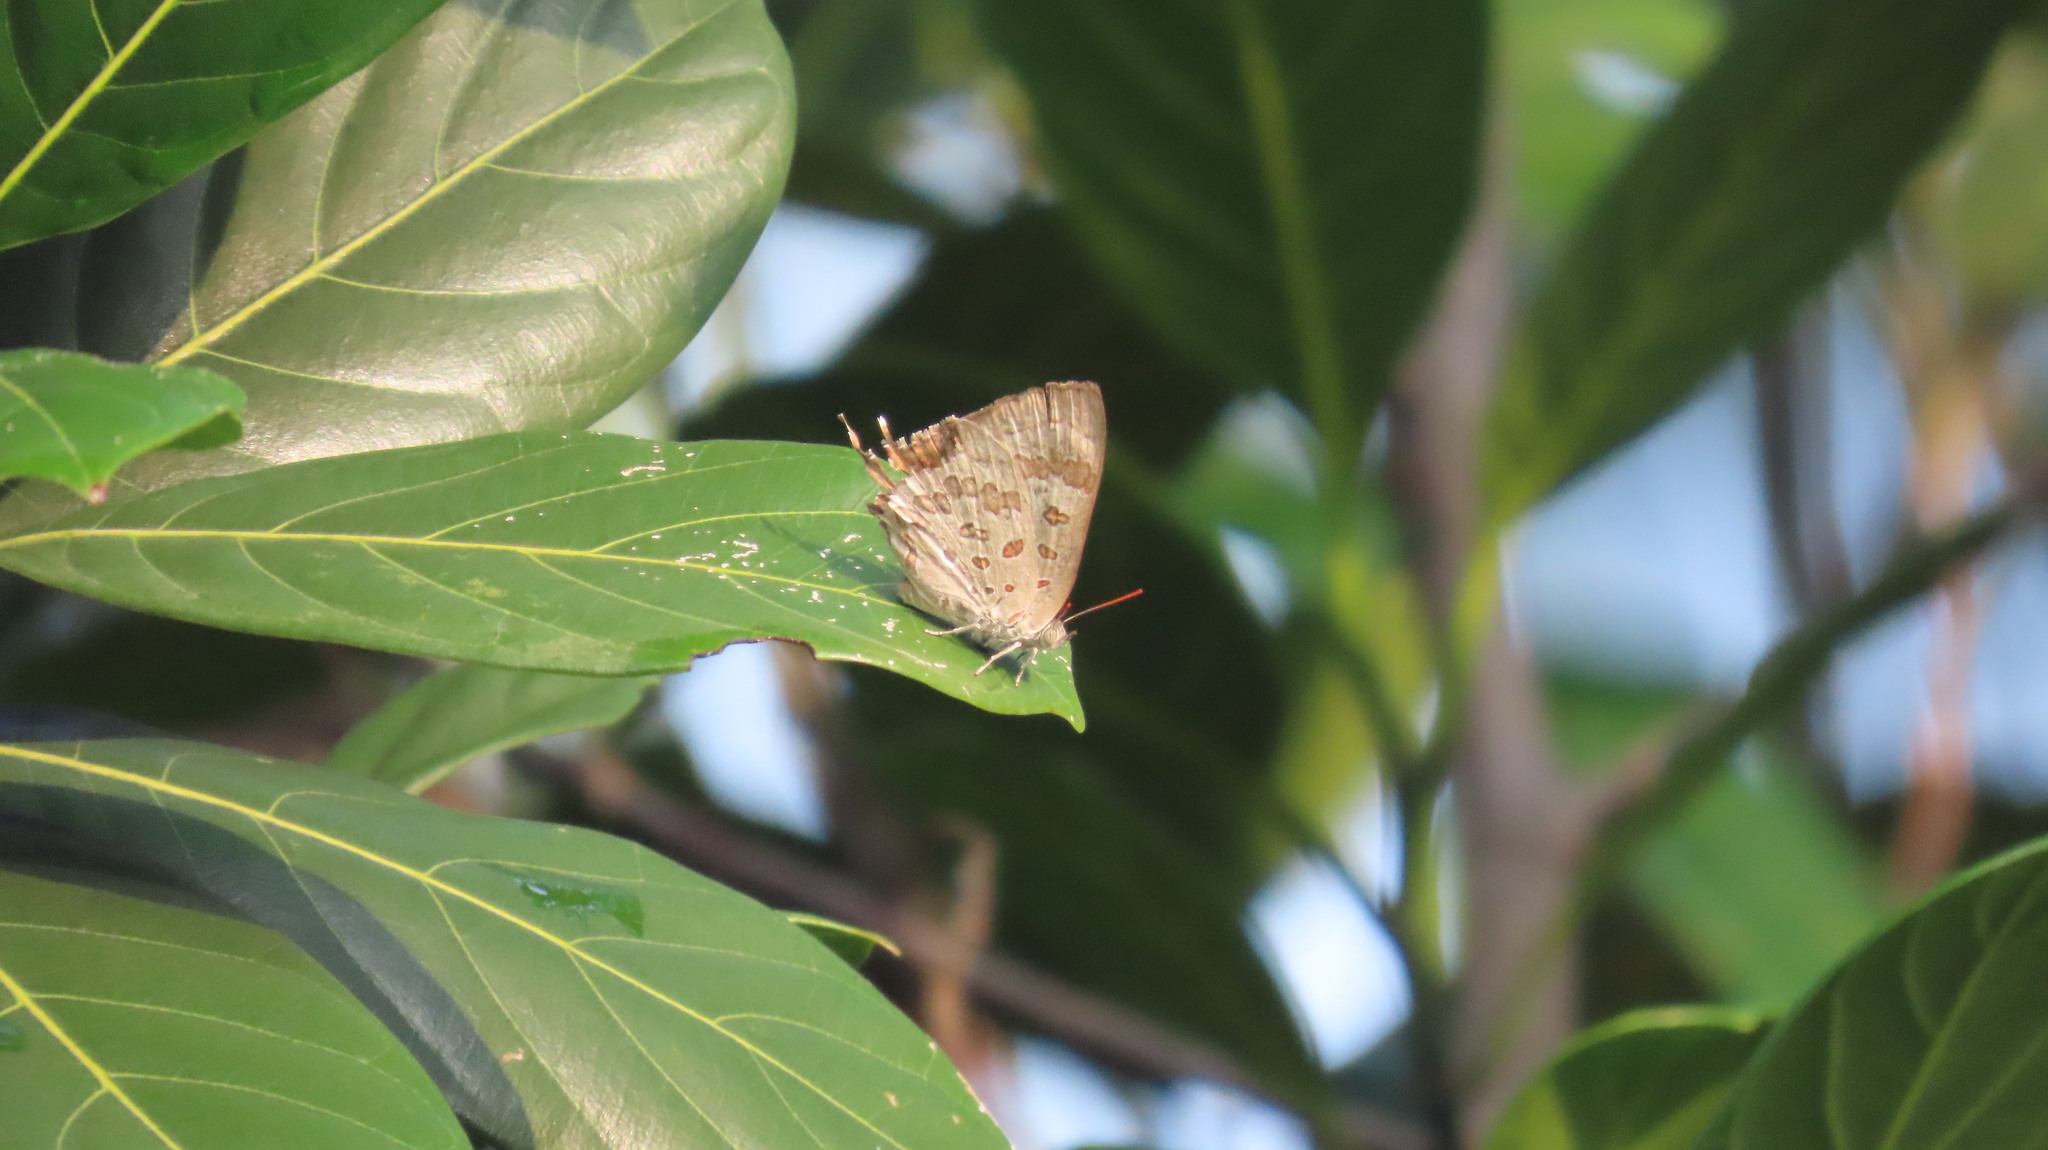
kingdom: Animalia
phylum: Arthropoda
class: Insecta
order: Lepidoptera
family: Lycaenidae
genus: Zesius
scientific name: Zesius chrysomallus
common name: Redspot
